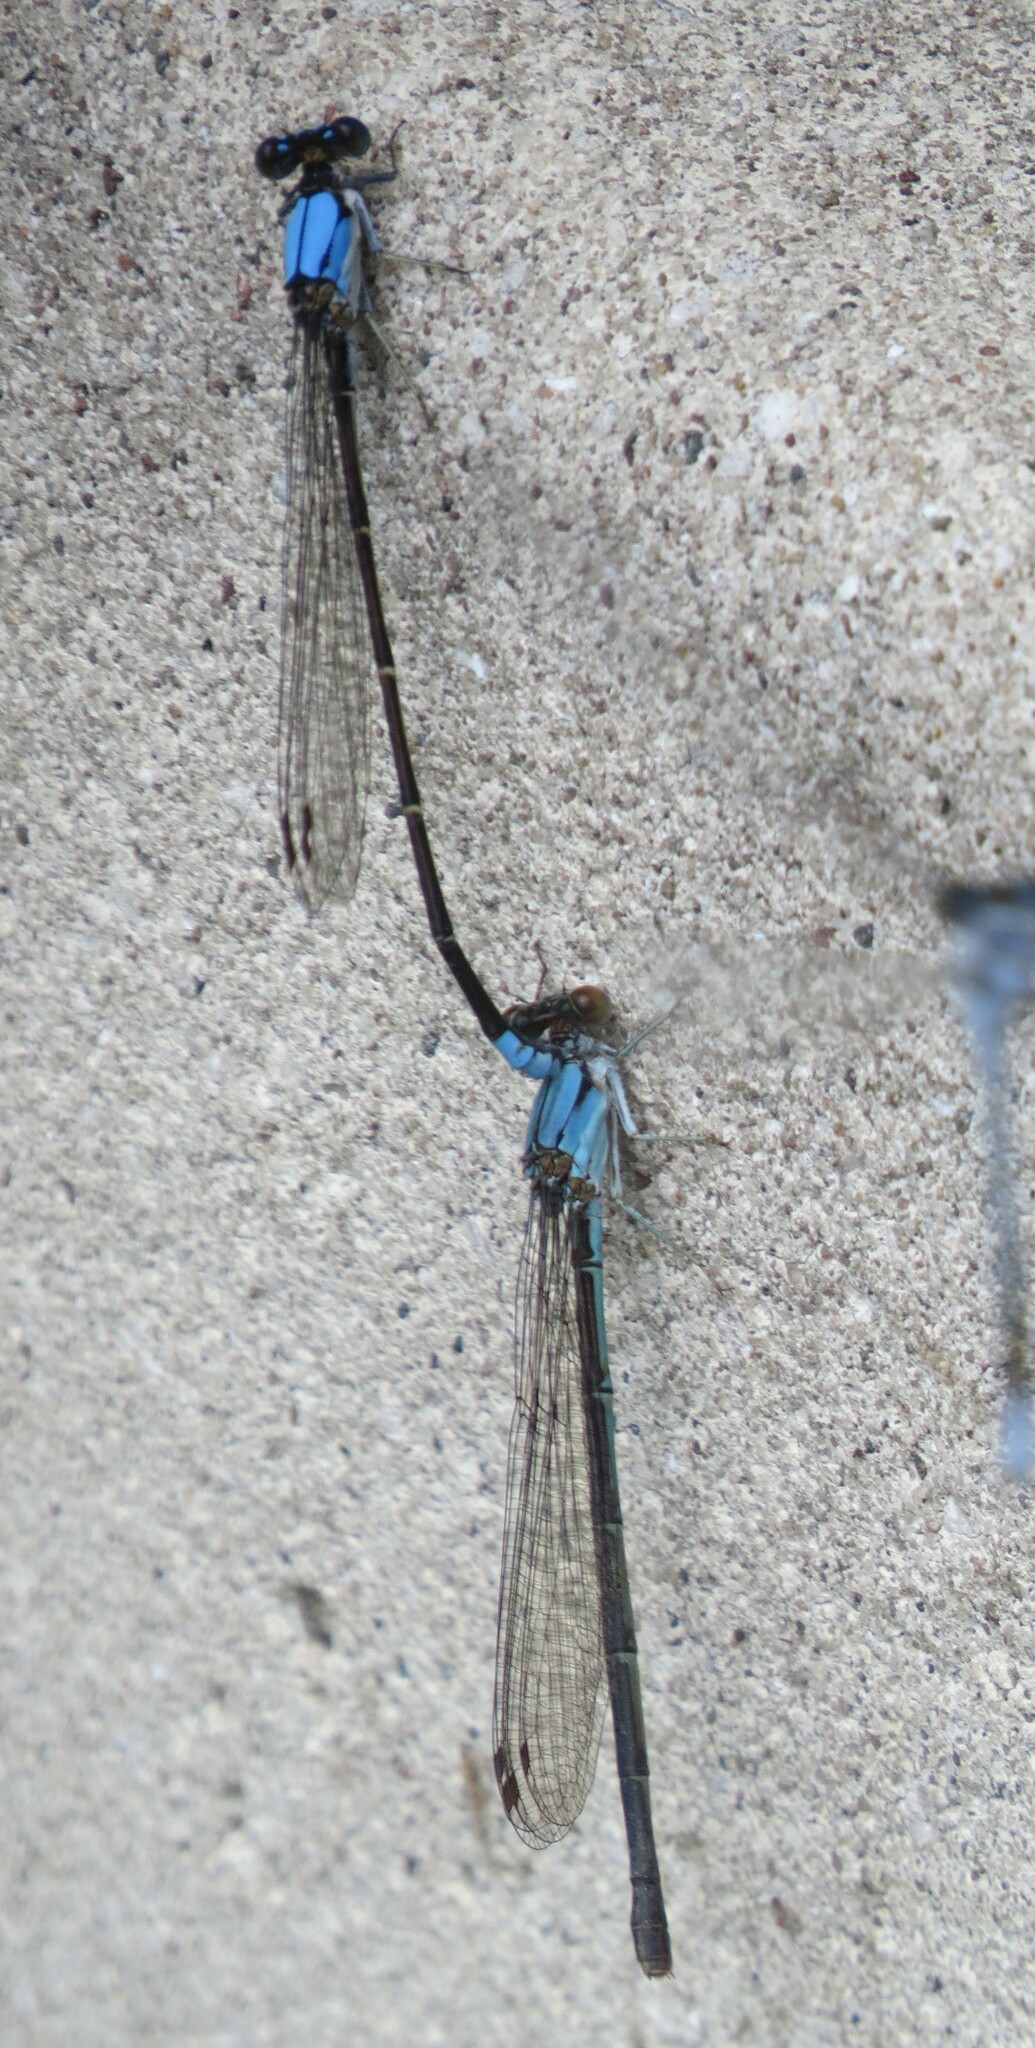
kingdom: Animalia
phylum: Arthropoda
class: Insecta
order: Odonata
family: Coenagrionidae
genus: Argia
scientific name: Argia apicalis
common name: Blue-fronted dancer
